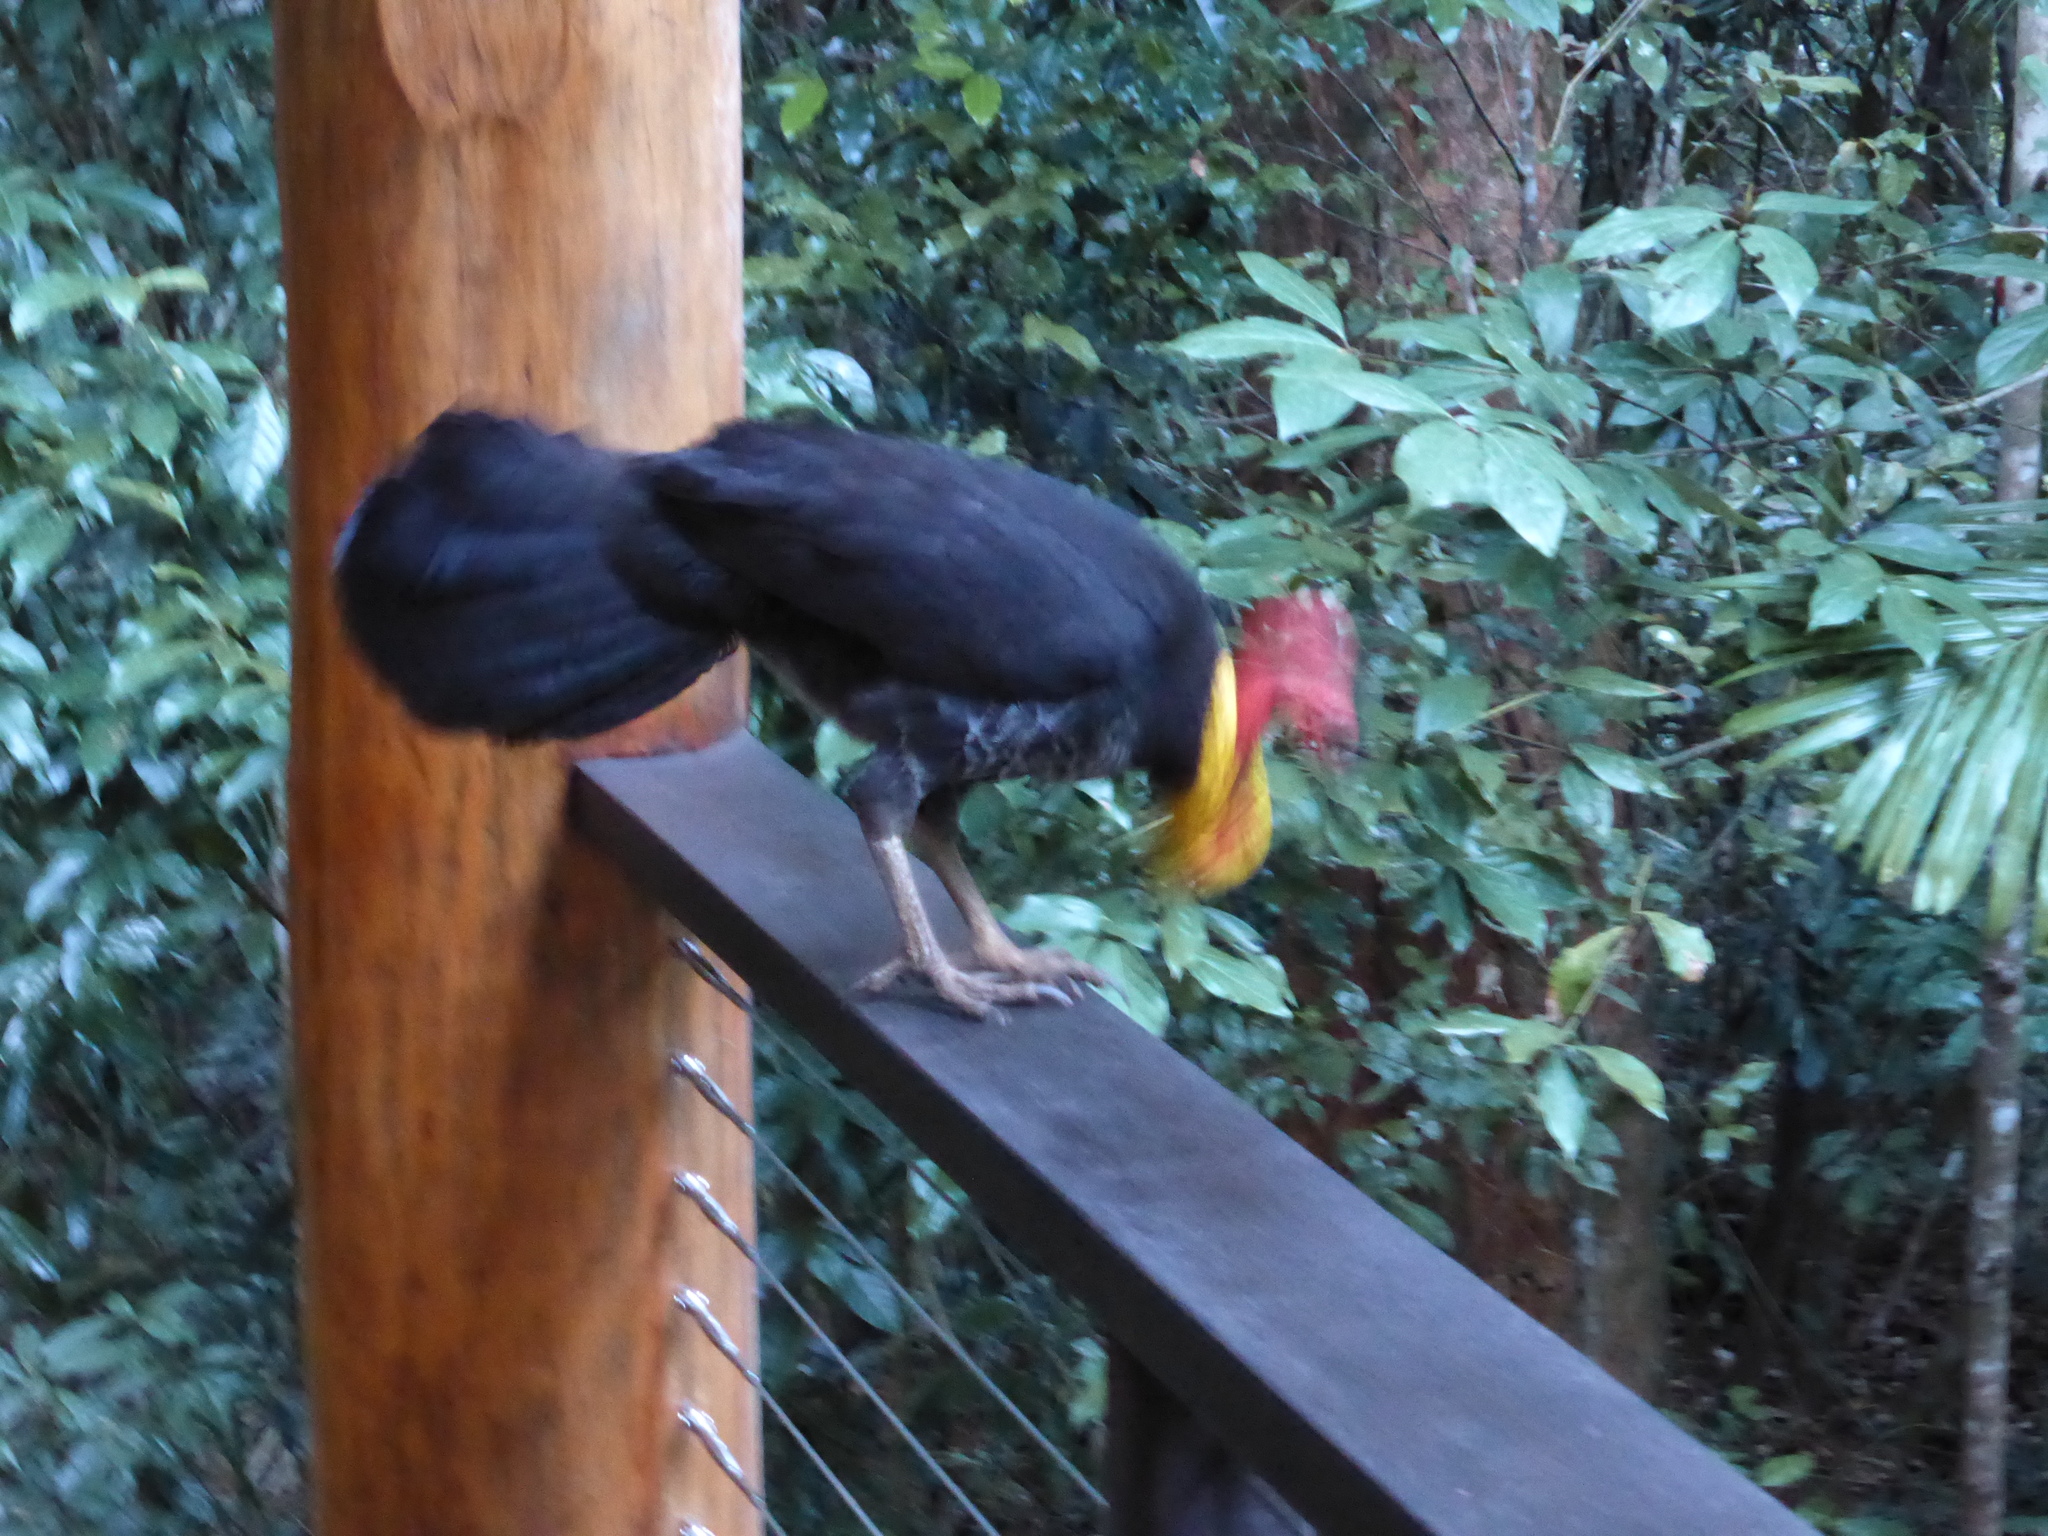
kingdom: Animalia
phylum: Chordata
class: Aves
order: Galliformes
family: Megapodiidae
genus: Alectura
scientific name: Alectura lathami
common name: Australian brushturkey
